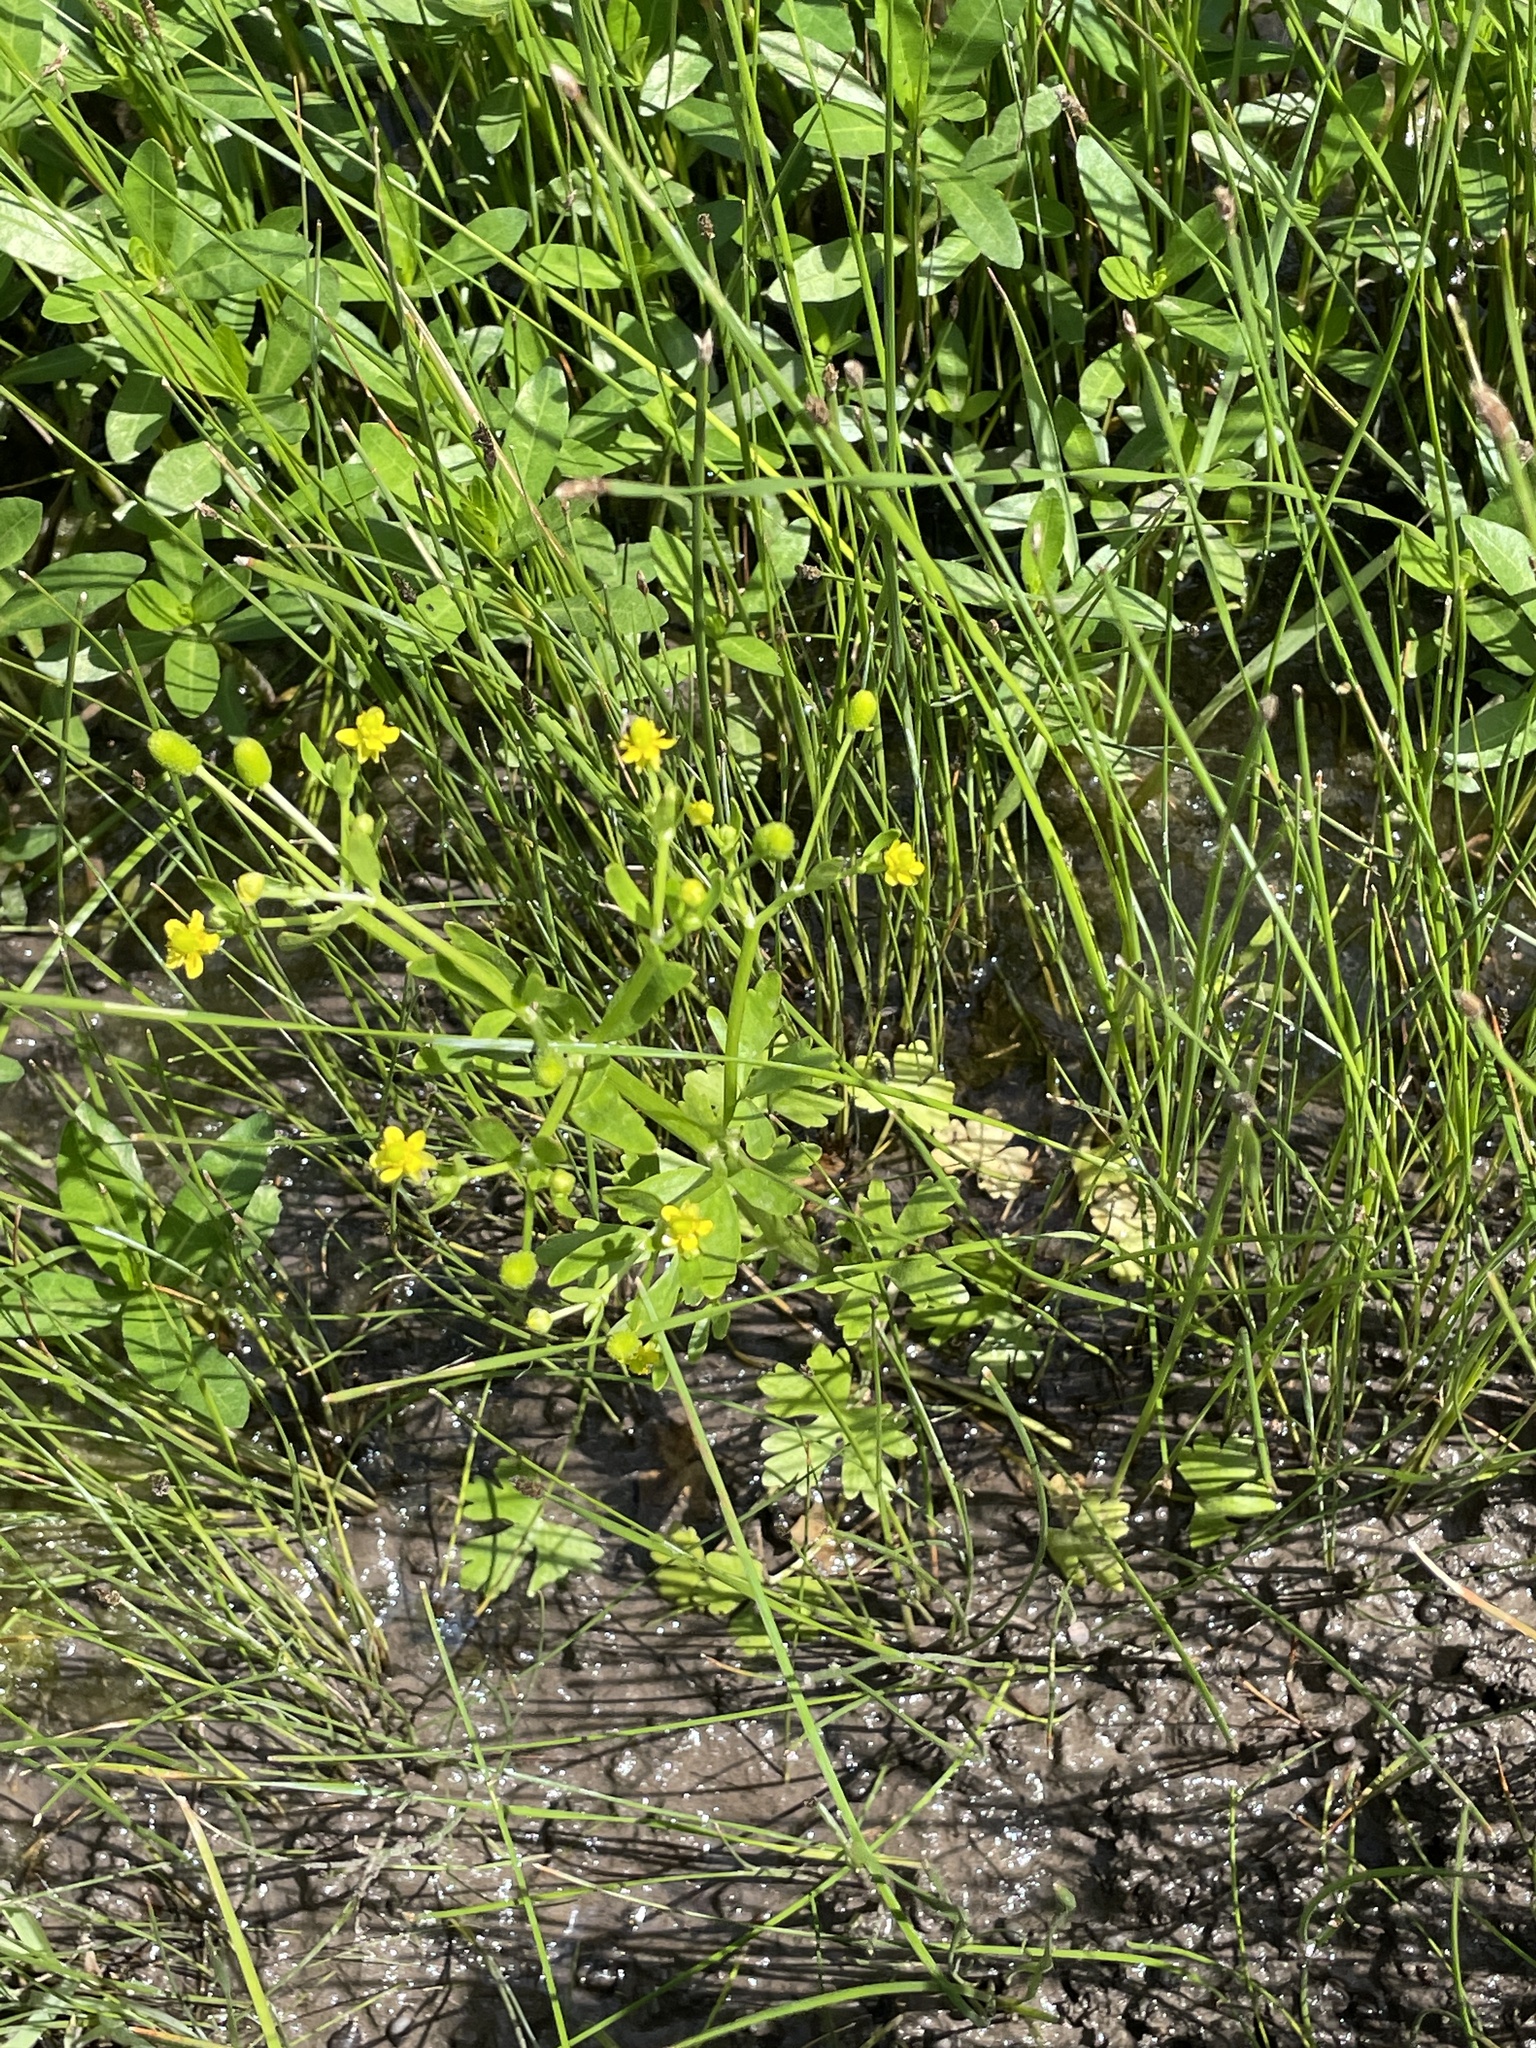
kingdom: Plantae
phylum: Tracheophyta
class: Magnoliopsida
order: Ranunculales
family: Ranunculaceae
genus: Ranunculus
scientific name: Ranunculus sceleratus
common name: Celery-leaved buttercup
